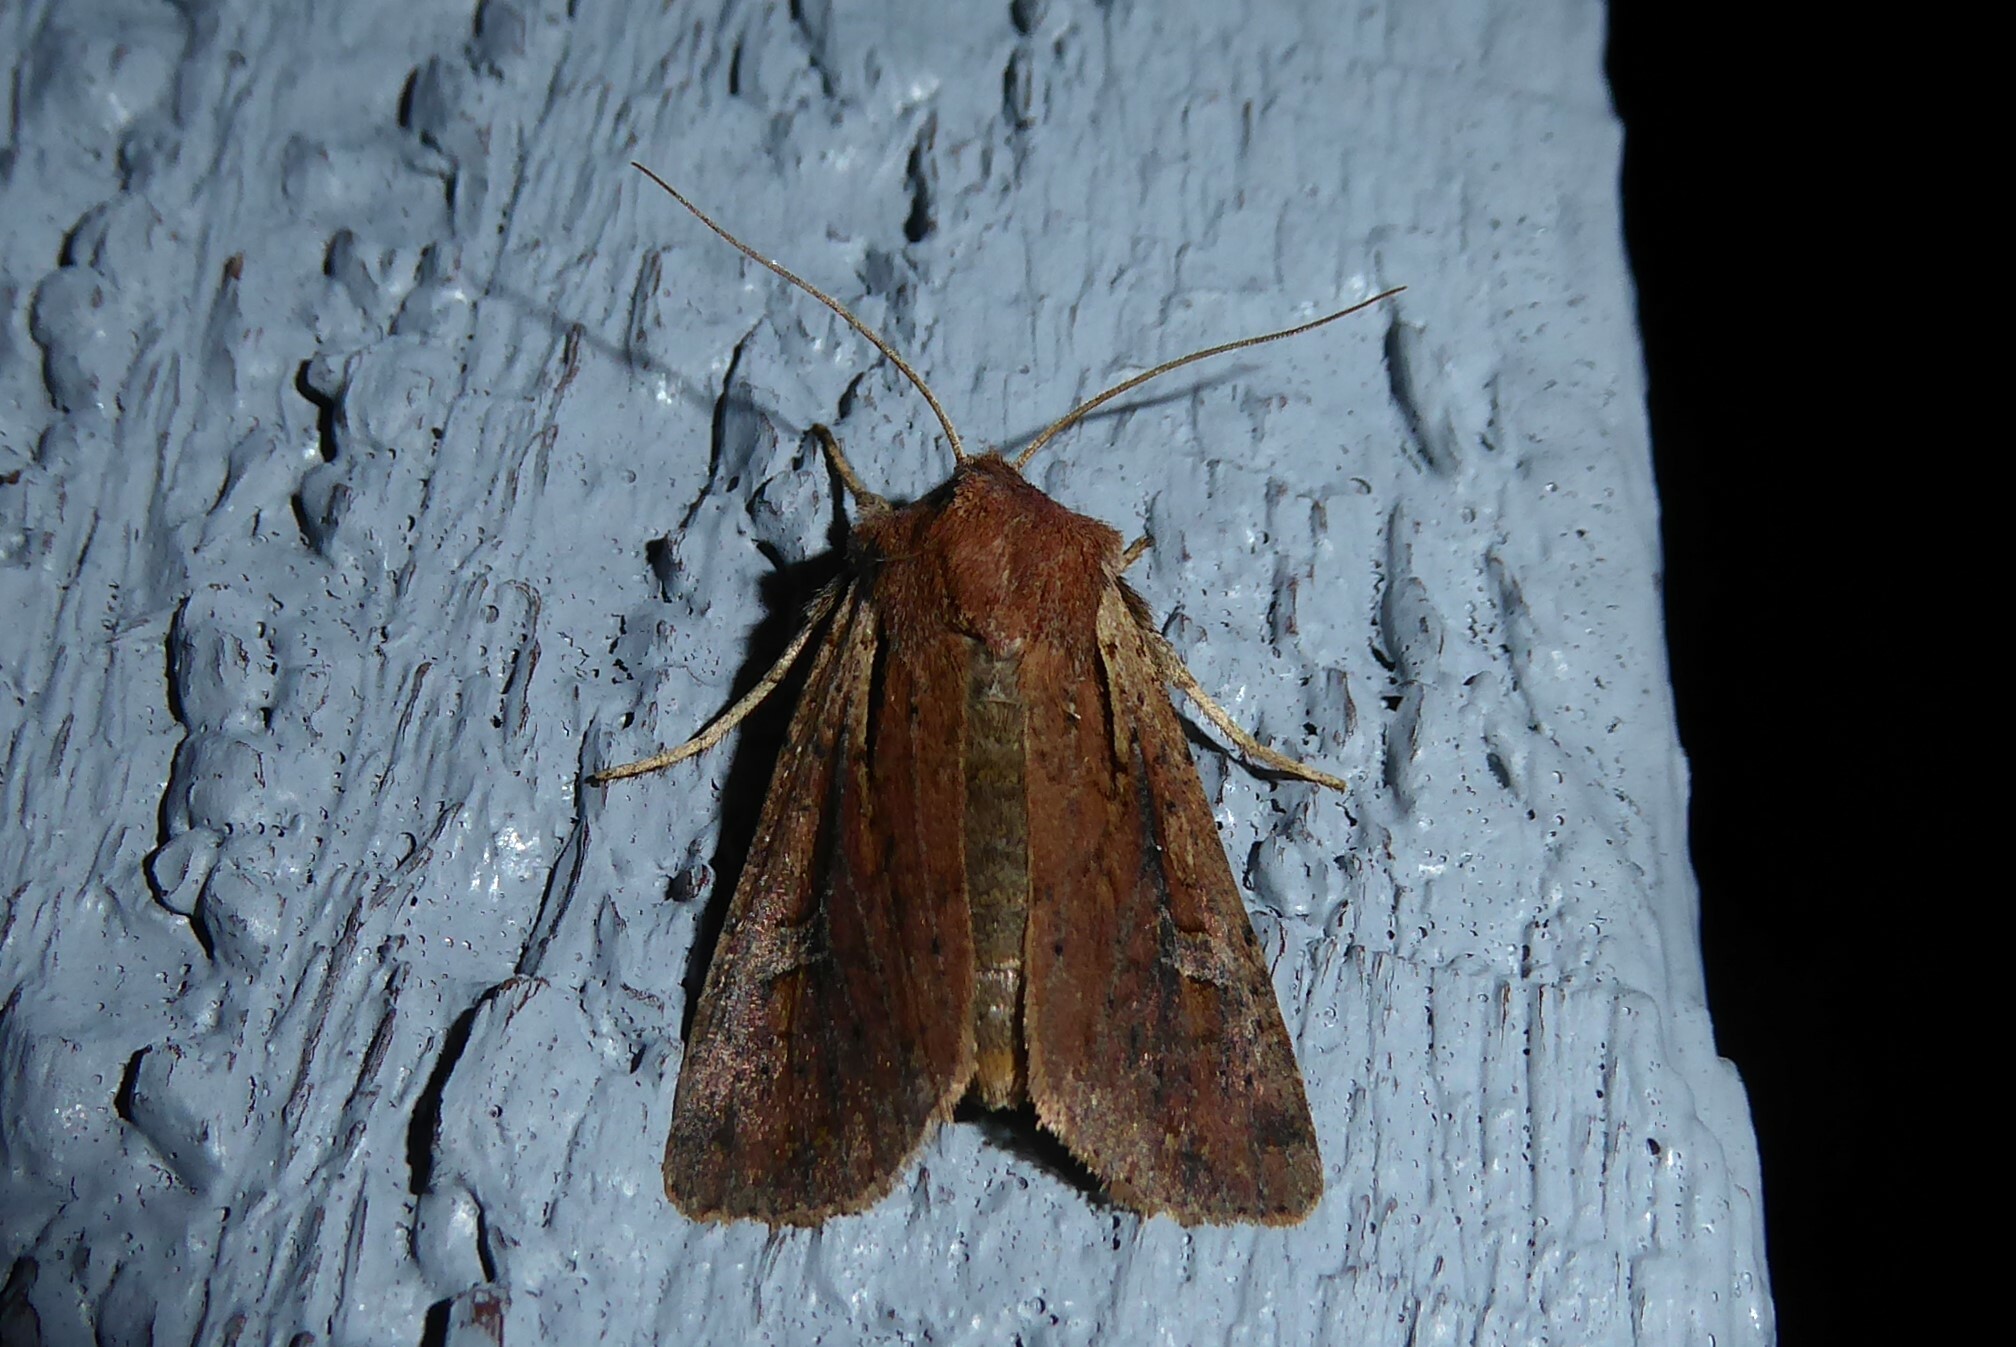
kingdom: Animalia
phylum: Arthropoda
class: Insecta
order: Lepidoptera
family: Noctuidae
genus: Ichneutica
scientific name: Ichneutica atristriga
